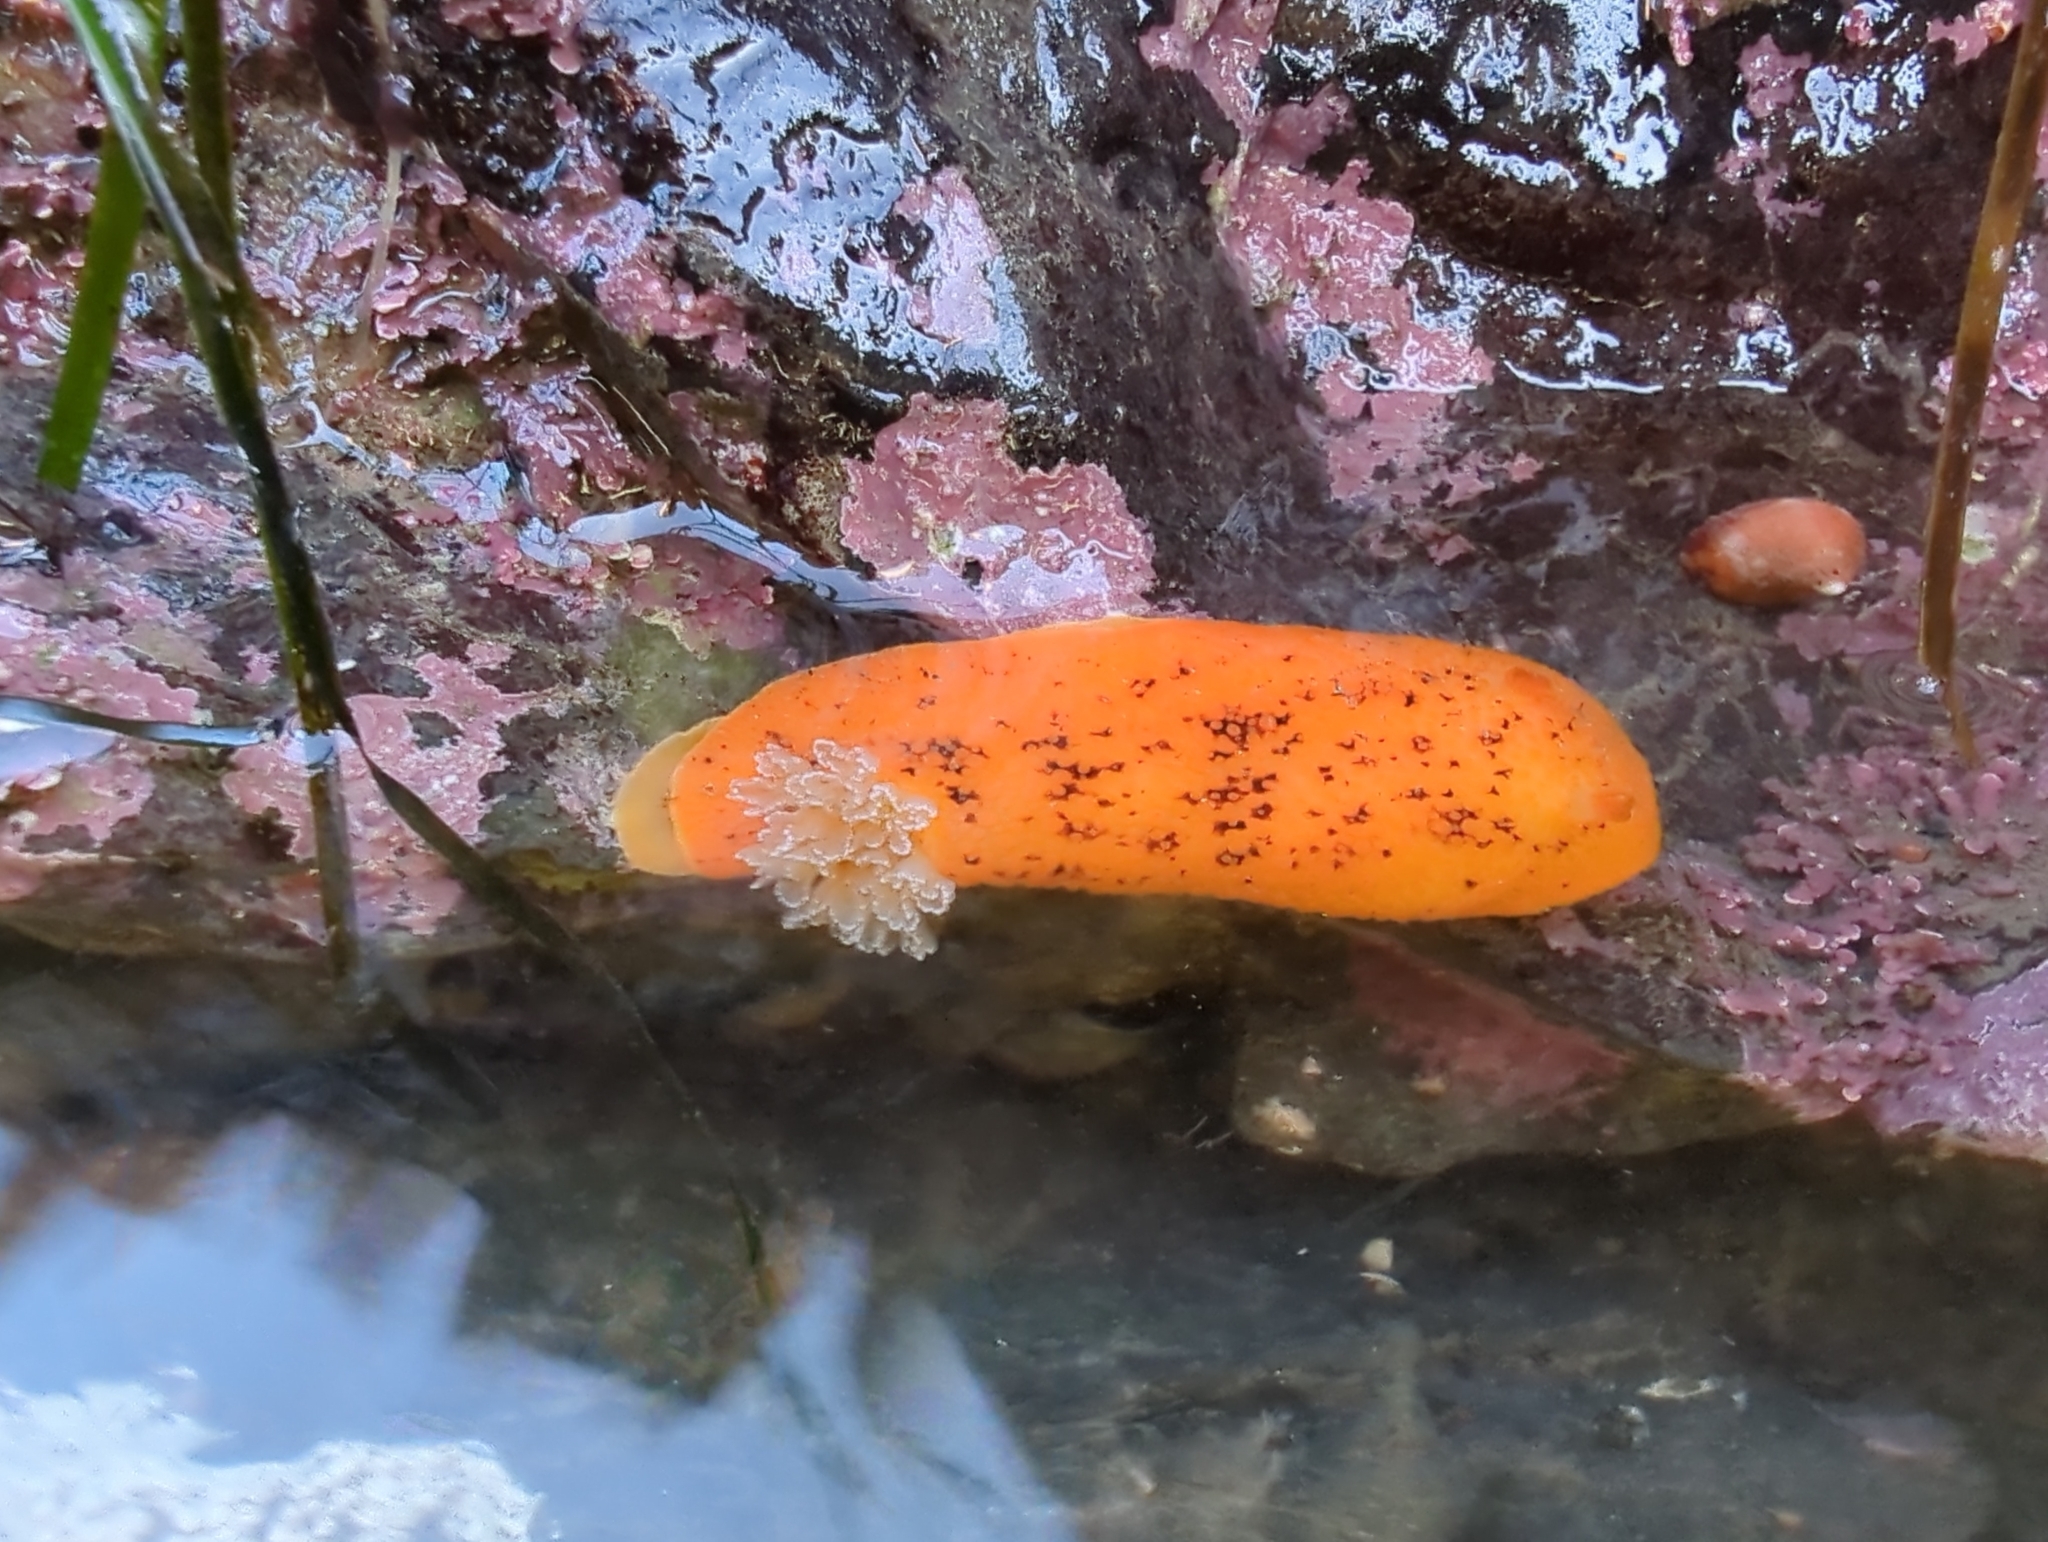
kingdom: Animalia
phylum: Mollusca
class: Gastropoda
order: Nudibranchia
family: Discodorididae
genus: Peltodoris
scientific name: Peltodoris nobilis
